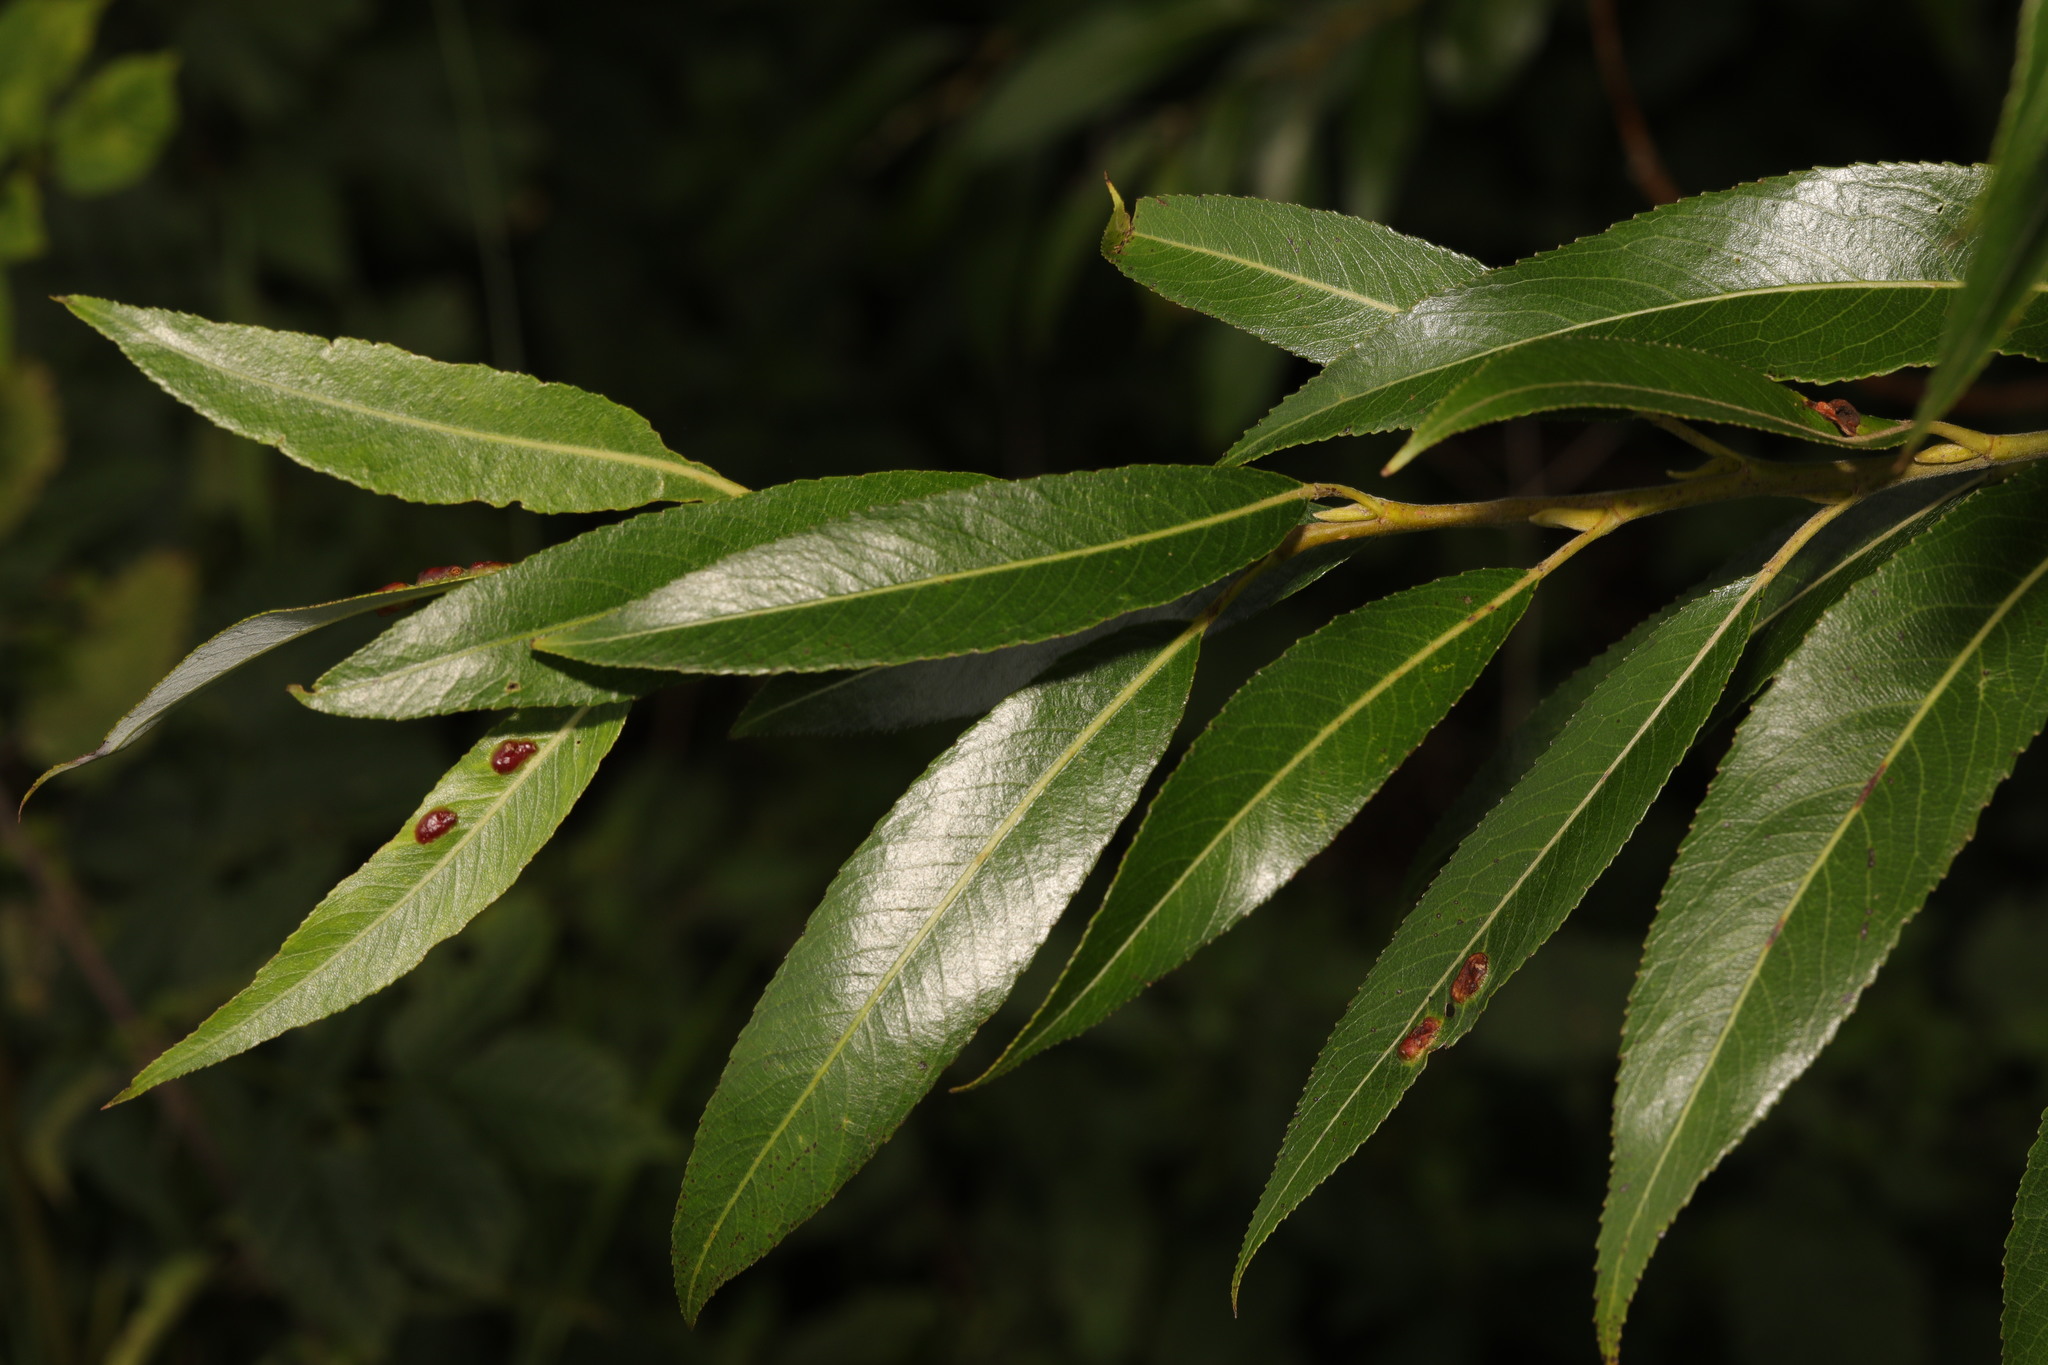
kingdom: Plantae
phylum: Tracheophyta
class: Magnoliopsida
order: Malpighiales
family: Salicaceae
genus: Salix
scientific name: Salix fragilis
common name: Crack willow
